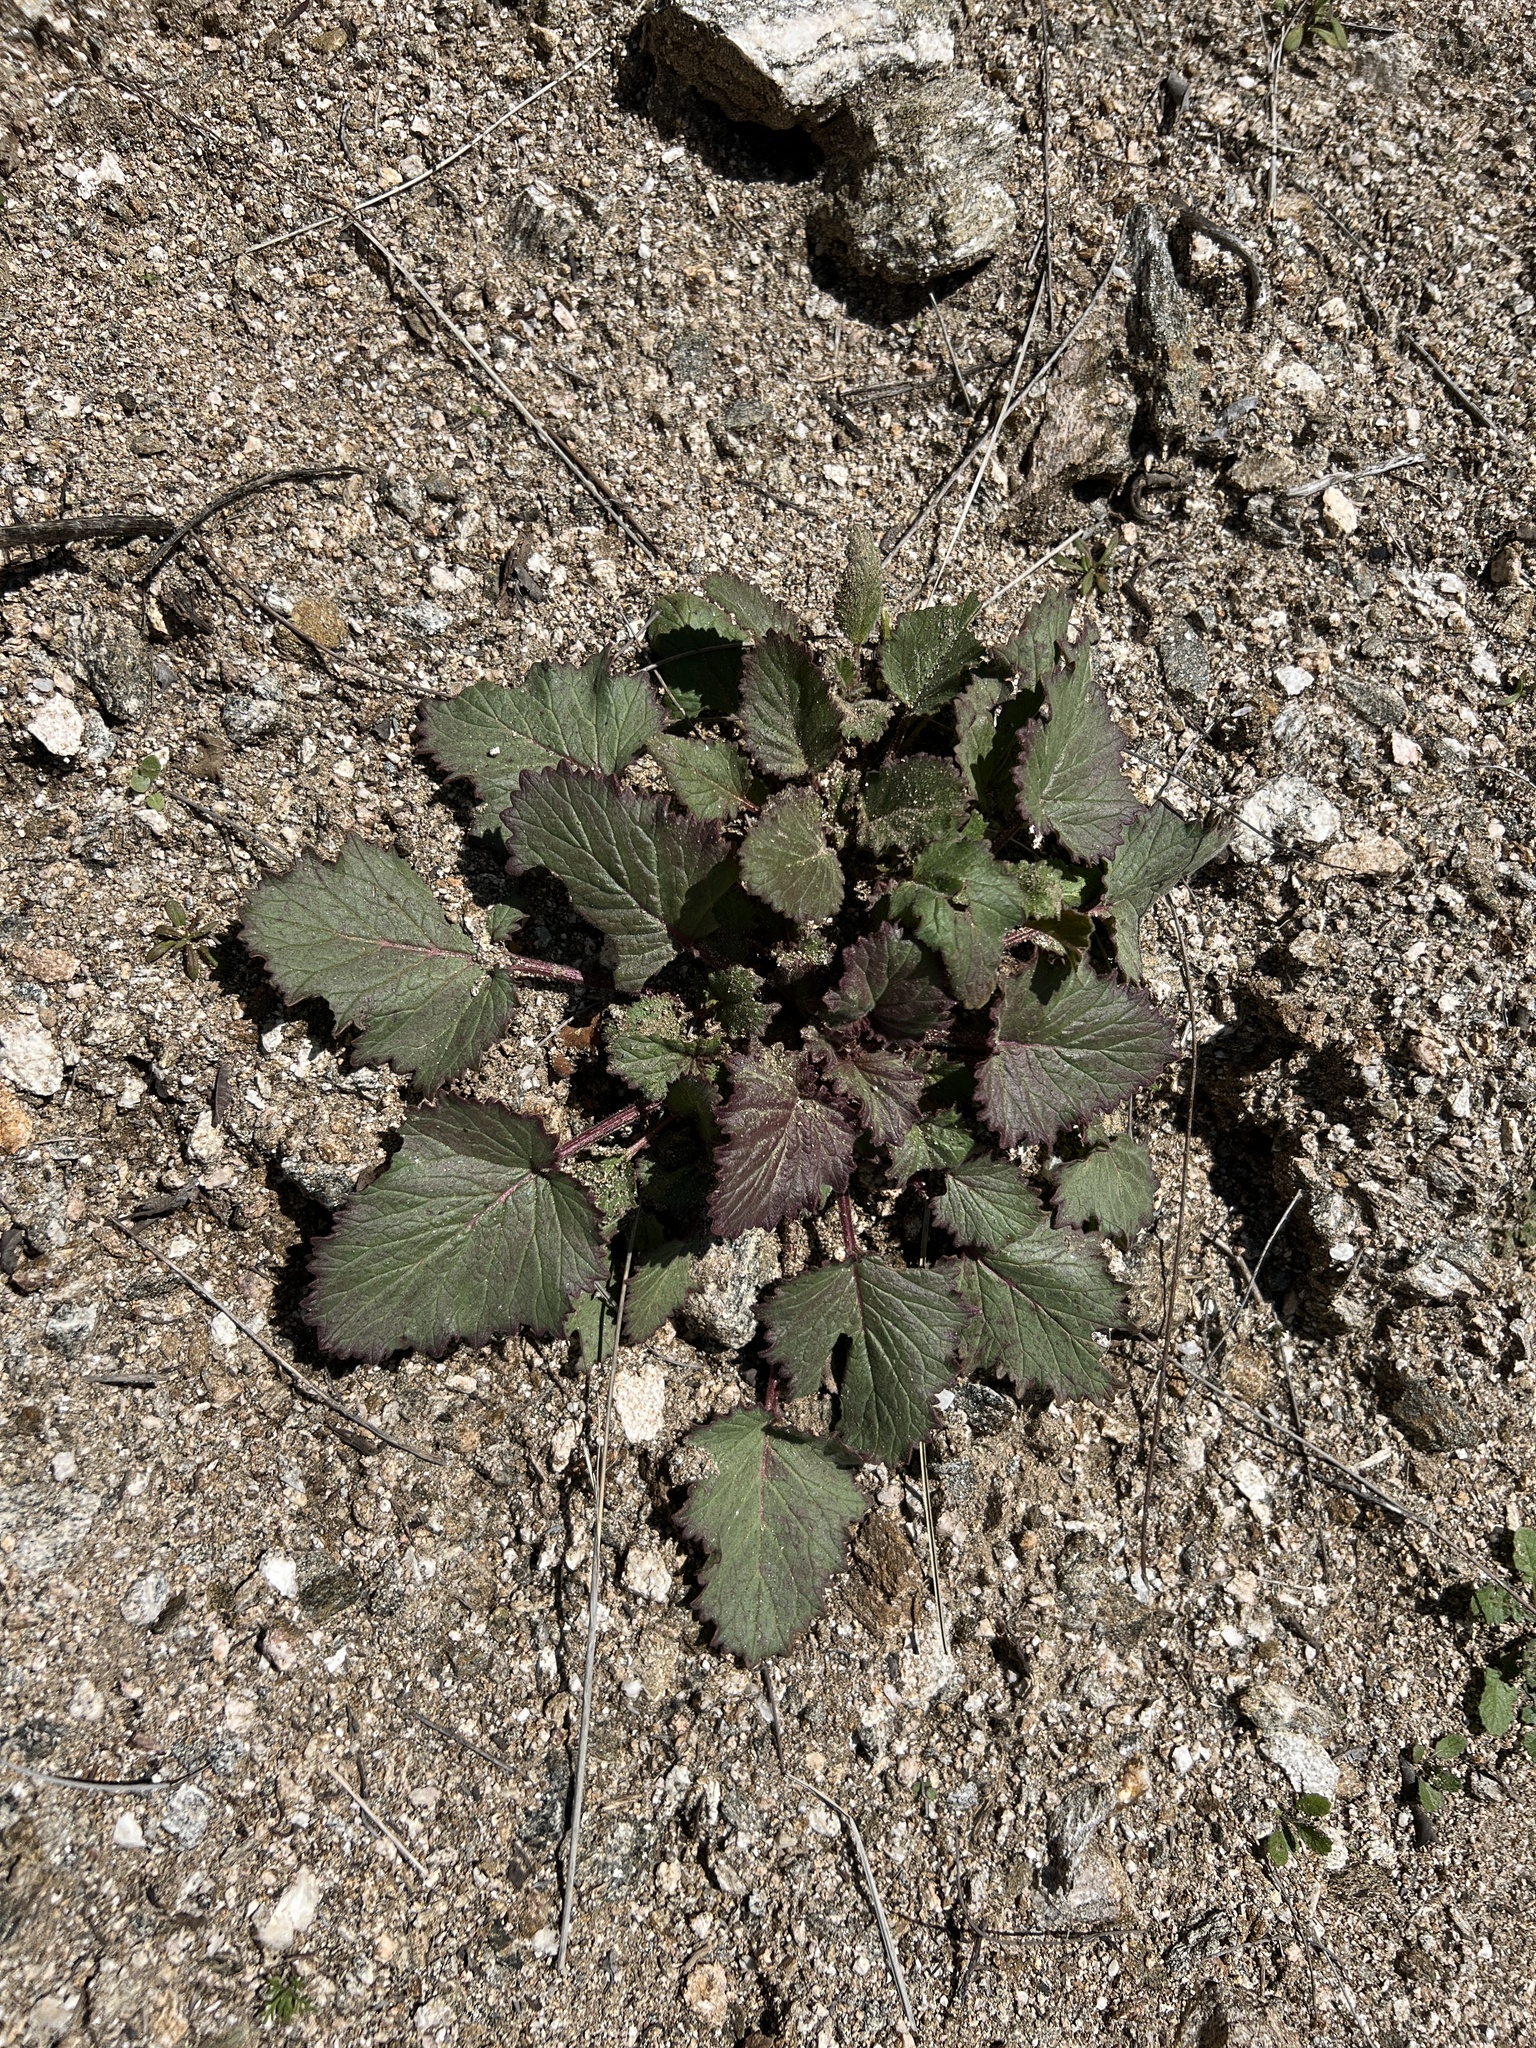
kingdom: Plantae
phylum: Tracheophyta
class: Magnoliopsida
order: Boraginales
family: Hydrophyllaceae
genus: Phacelia
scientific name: Phacelia minor
